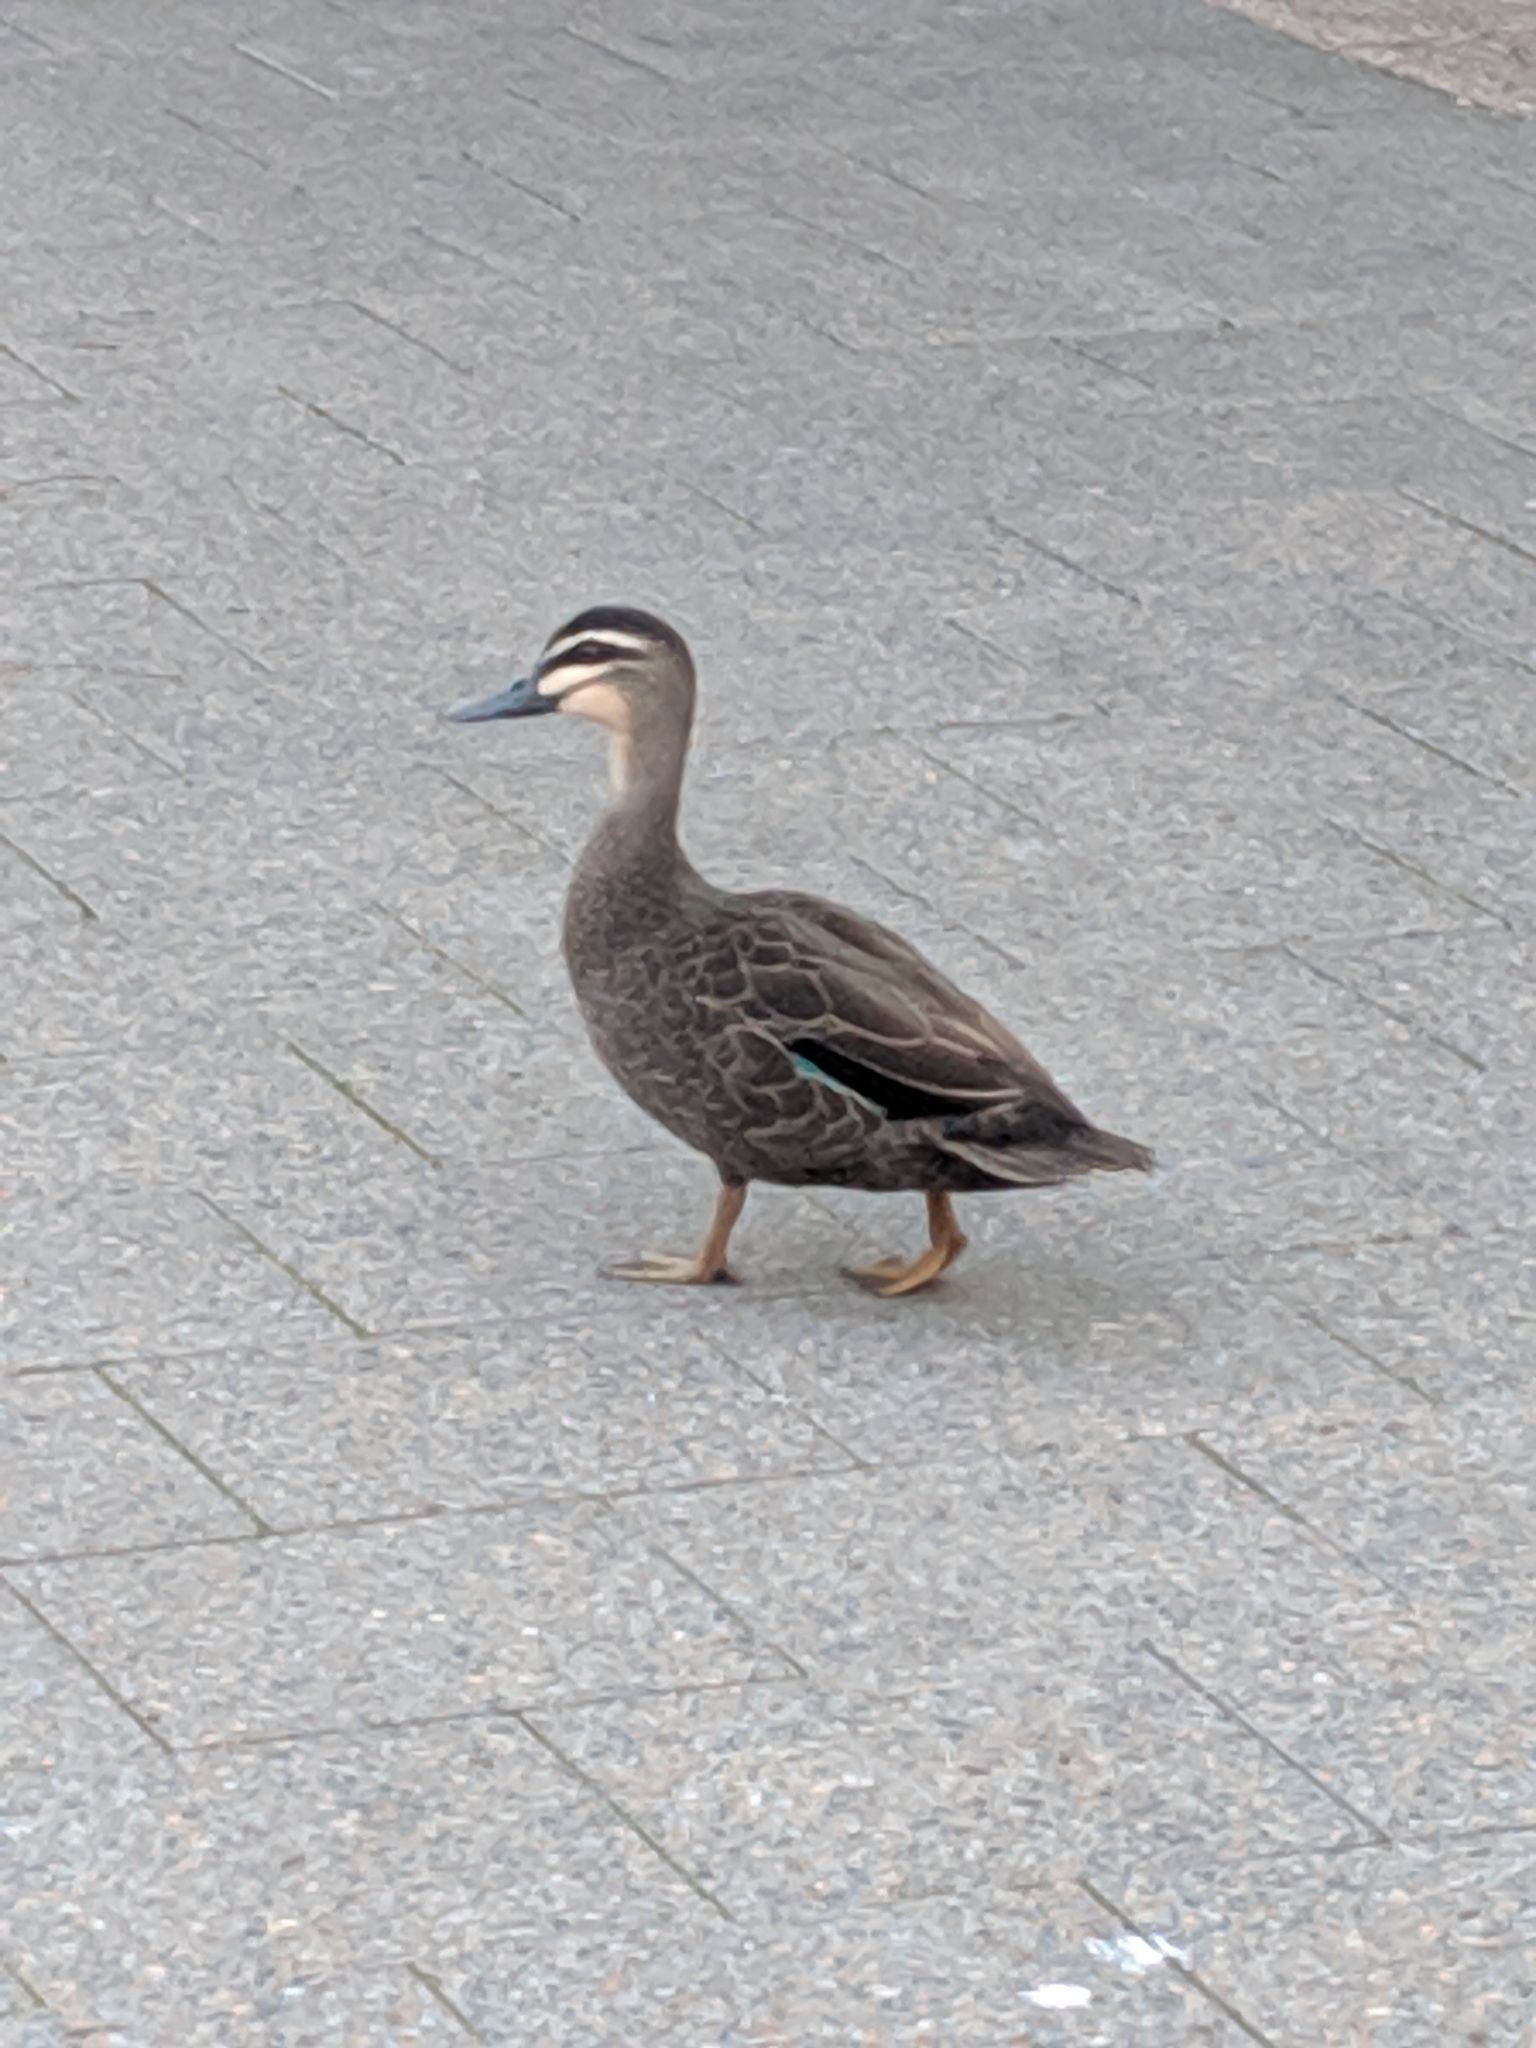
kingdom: Animalia
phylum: Chordata
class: Aves
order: Anseriformes
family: Anatidae
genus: Anas
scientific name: Anas superciliosa
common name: Pacific black duck
